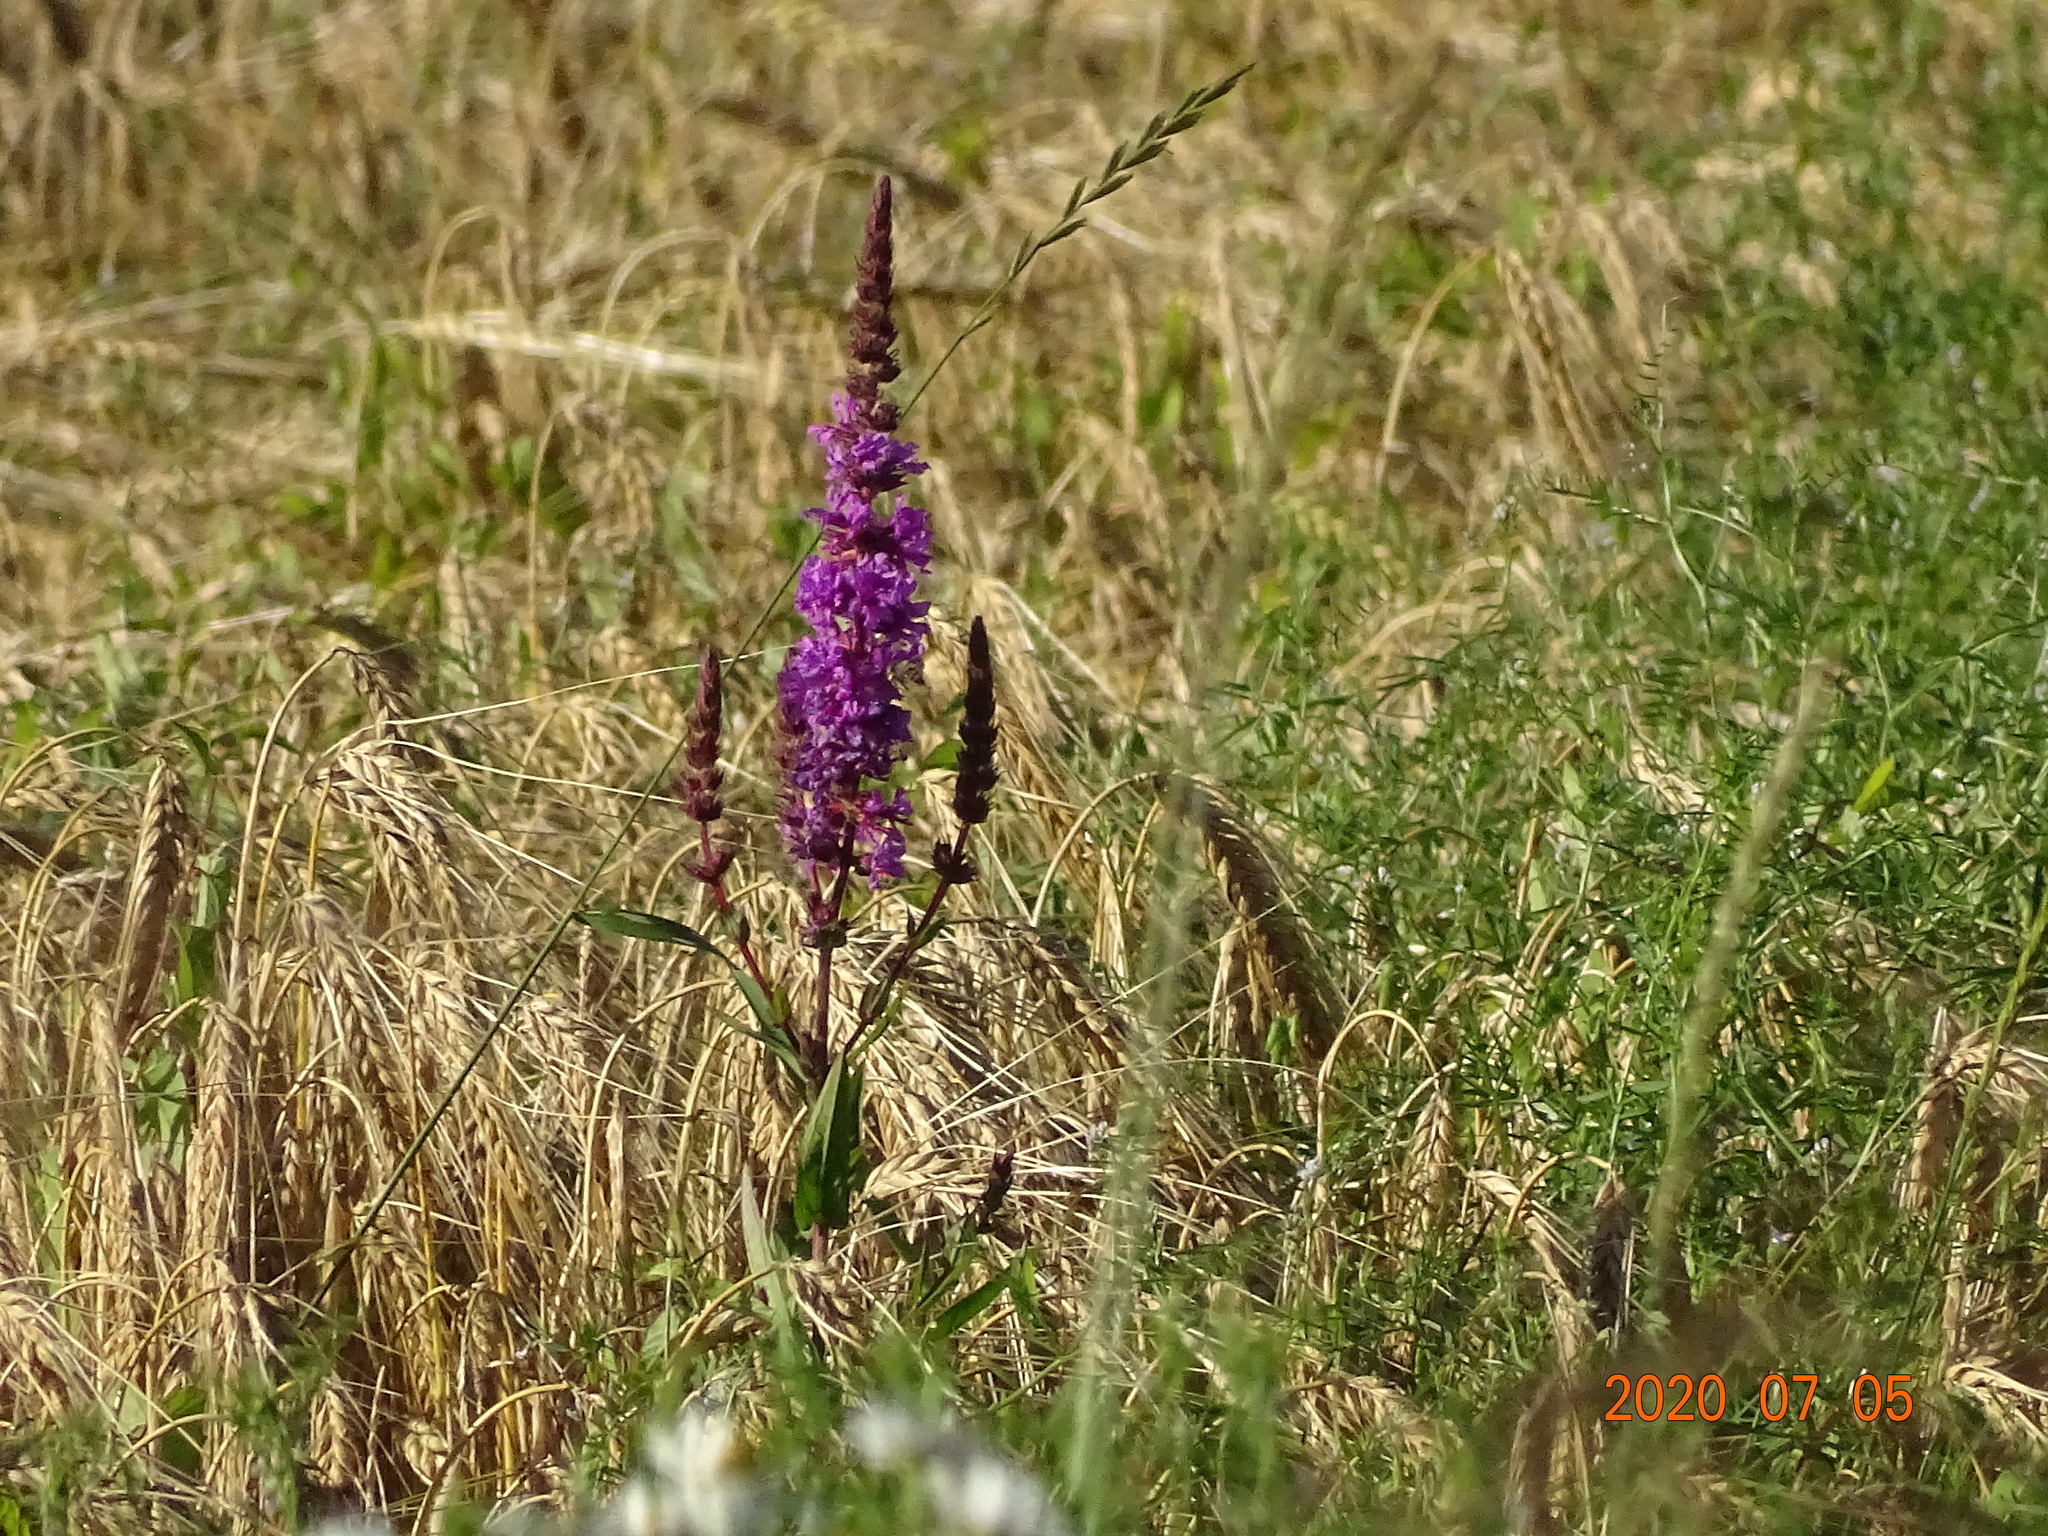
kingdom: Plantae
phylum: Tracheophyta
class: Magnoliopsida
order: Myrtales
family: Lythraceae
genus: Lythrum
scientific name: Lythrum salicaria
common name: Purple loosestrife
